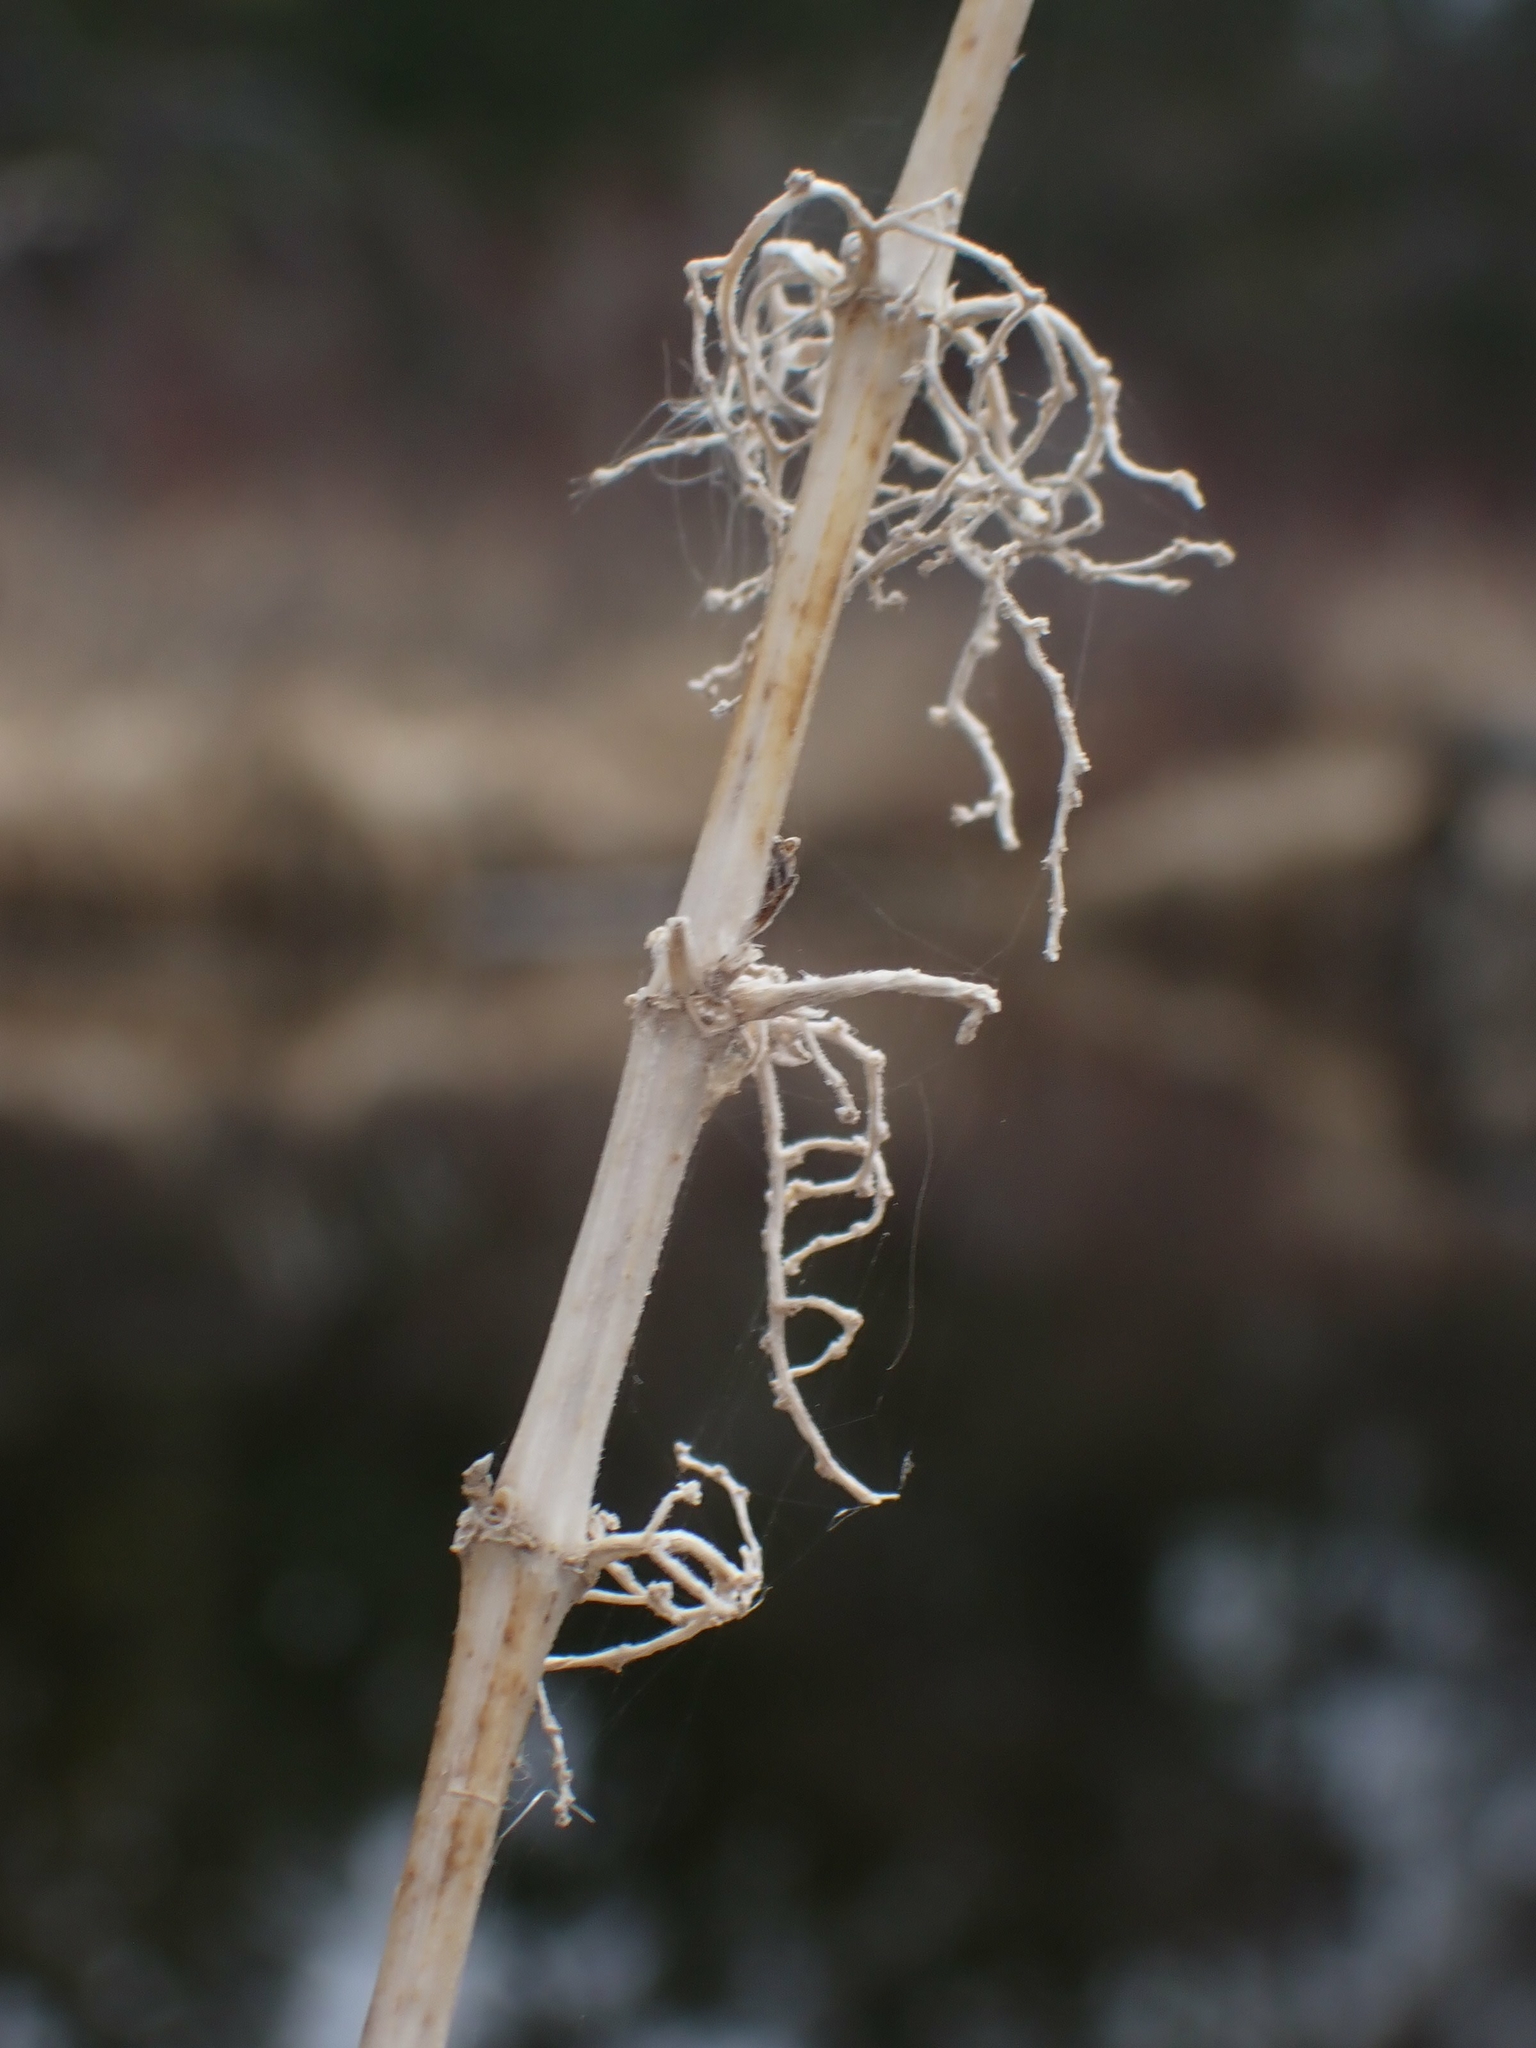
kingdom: Plantae
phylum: Tracheophyta
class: Magnoliopsida
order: Rosales
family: Urticaceae
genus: Urtica
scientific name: Urtica gracilis
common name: Slender stinging nettle
